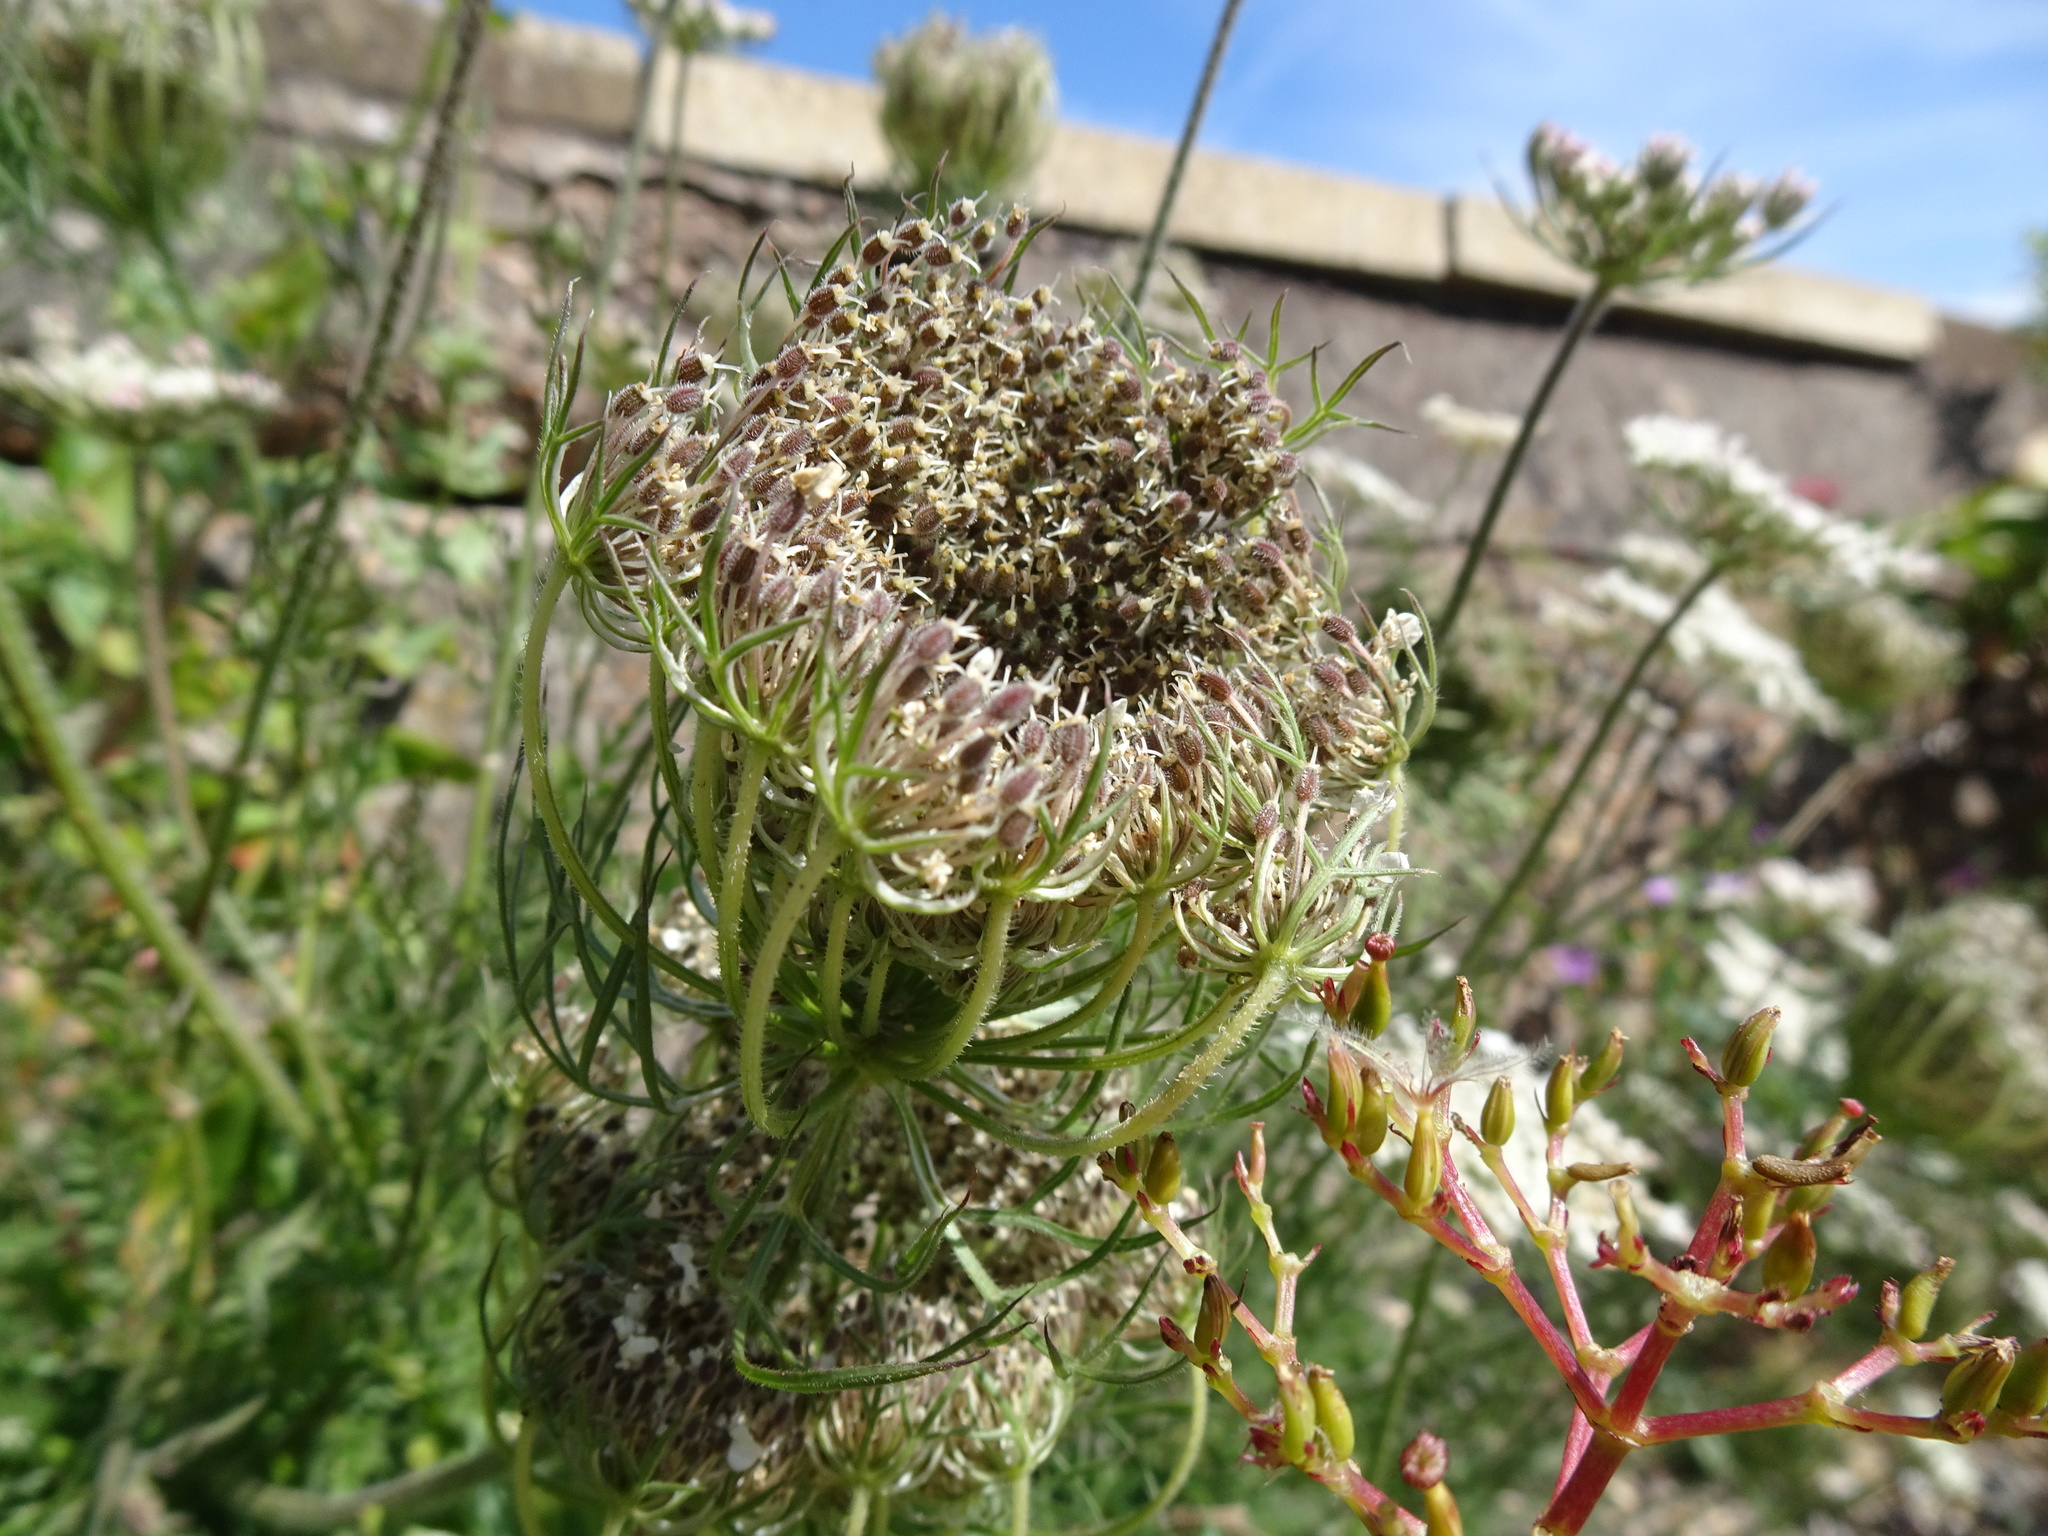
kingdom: Plantae
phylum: Tracheophyta
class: Magnoliopsida
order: Apiales
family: Apiaceae
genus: Daucus
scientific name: Daucus carota
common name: Wild carrot
